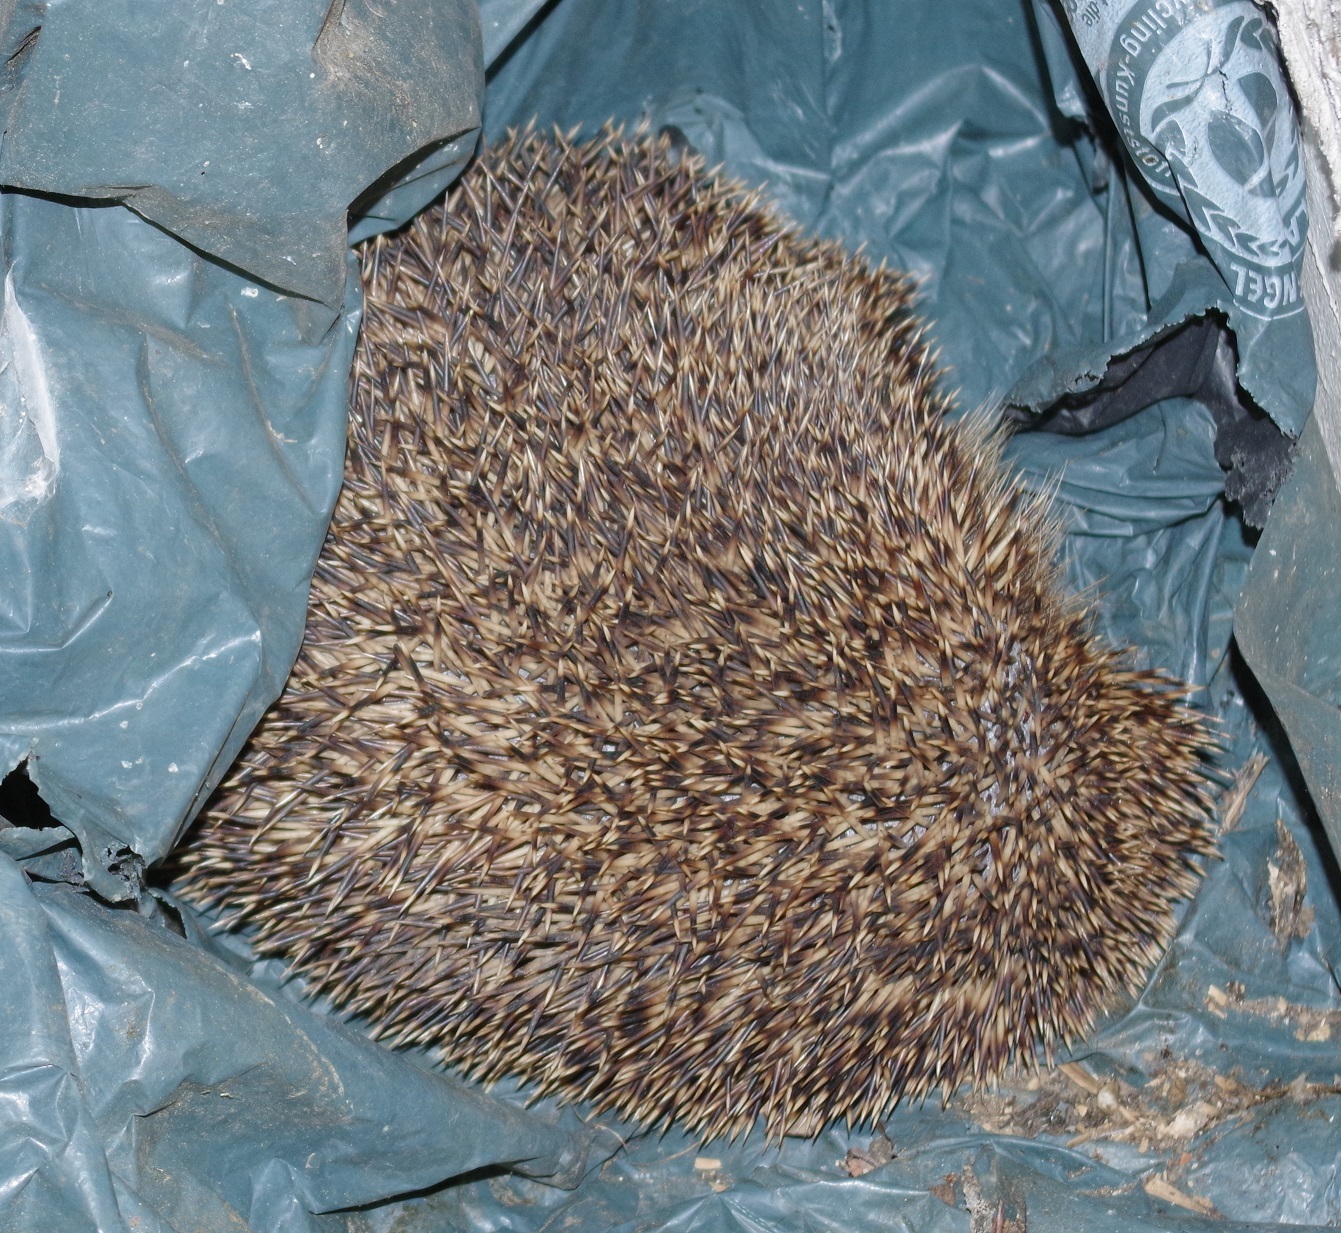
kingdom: Animalia
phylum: Chordata
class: Mammalia
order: Erinaceomorpha
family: Erinaceidae
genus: Erinaceus
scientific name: Erinaceus europaeus
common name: West european hedgehog
